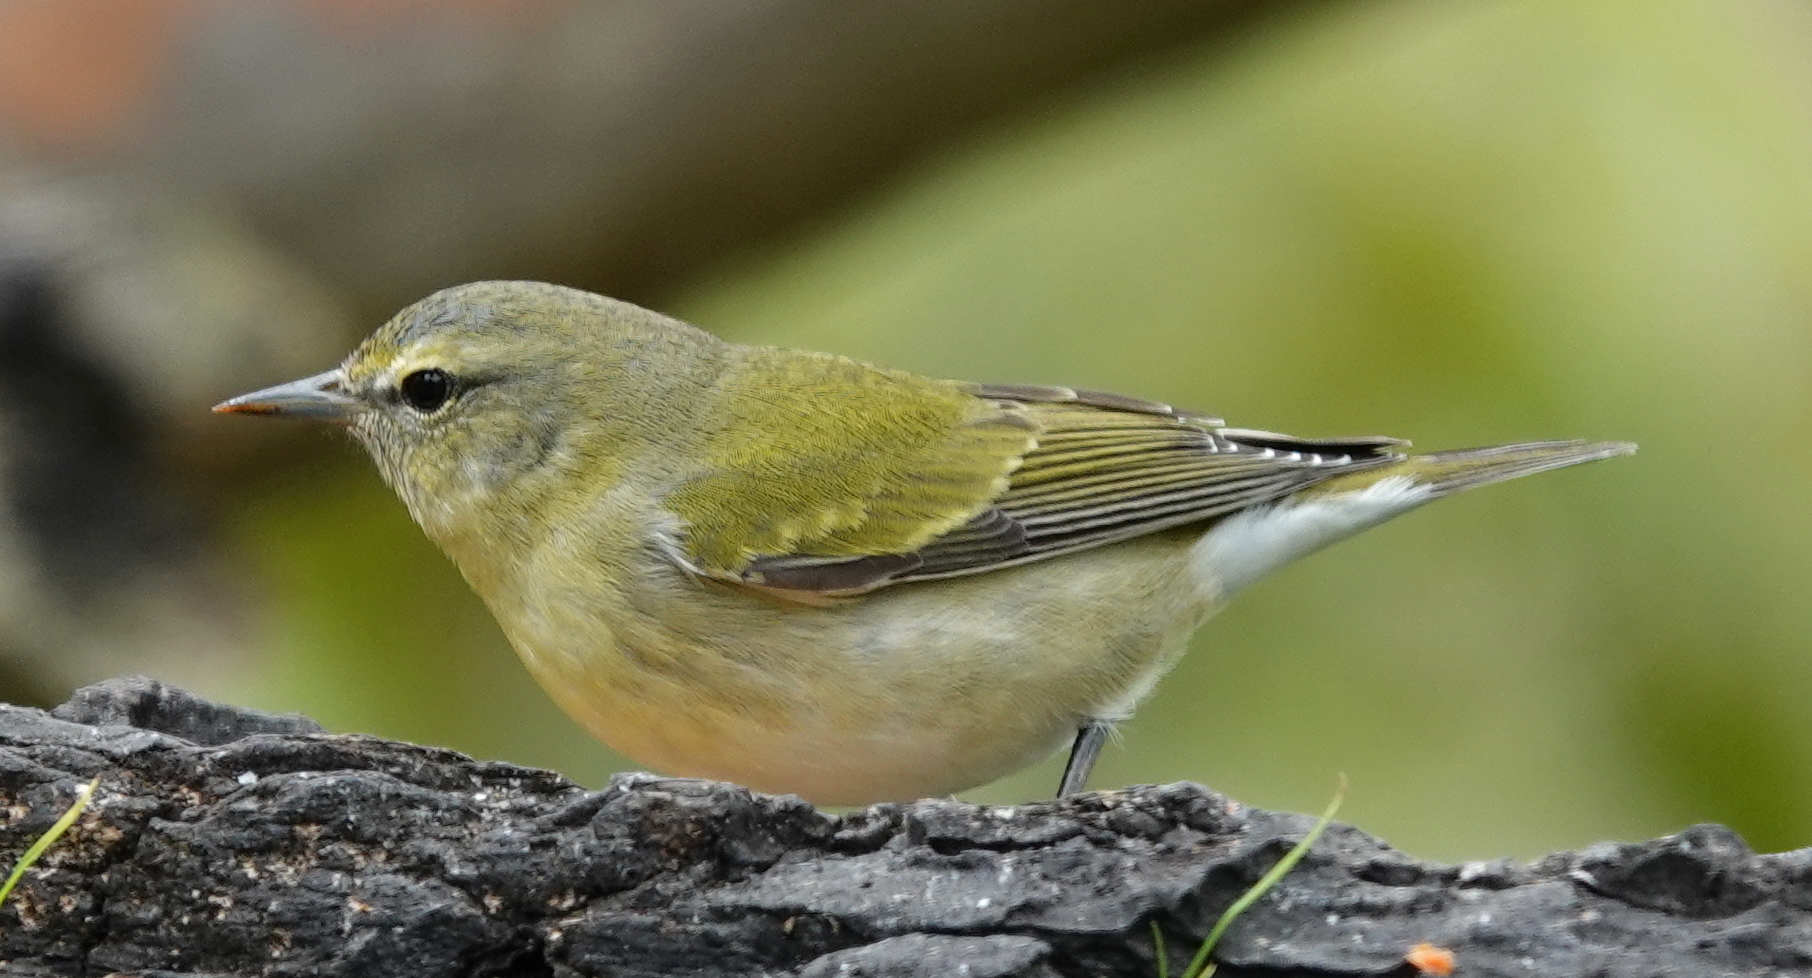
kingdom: Animalia
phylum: Chordata
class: Aves
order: Passeriformes
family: Parulidae
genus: Leiothlypis
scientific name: Leiothlypis peregrina
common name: Tennessee warbler
